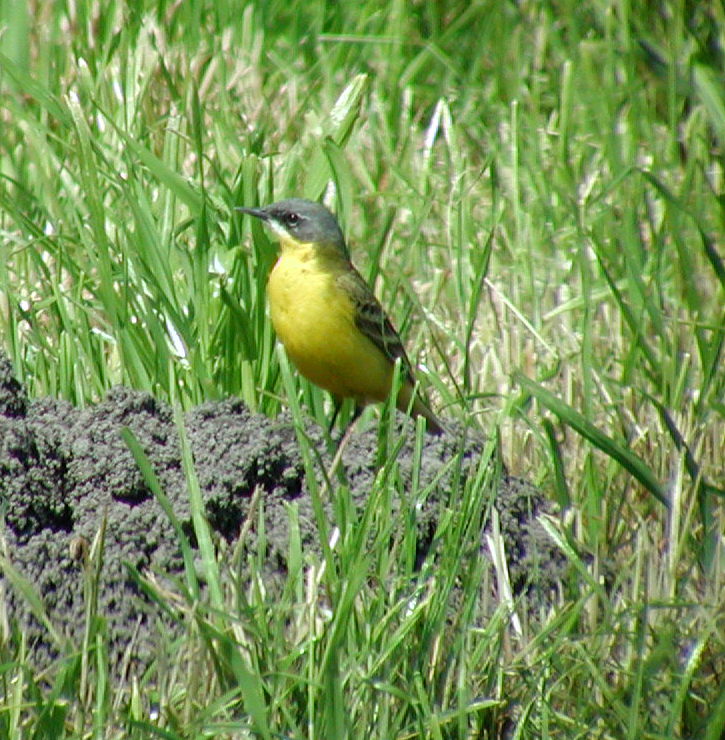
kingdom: Animalia
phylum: Chordata
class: Aves
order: Passeriformes
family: Motacillidae
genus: Motacilla
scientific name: Motacilla flava
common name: Western yellow wagtail
